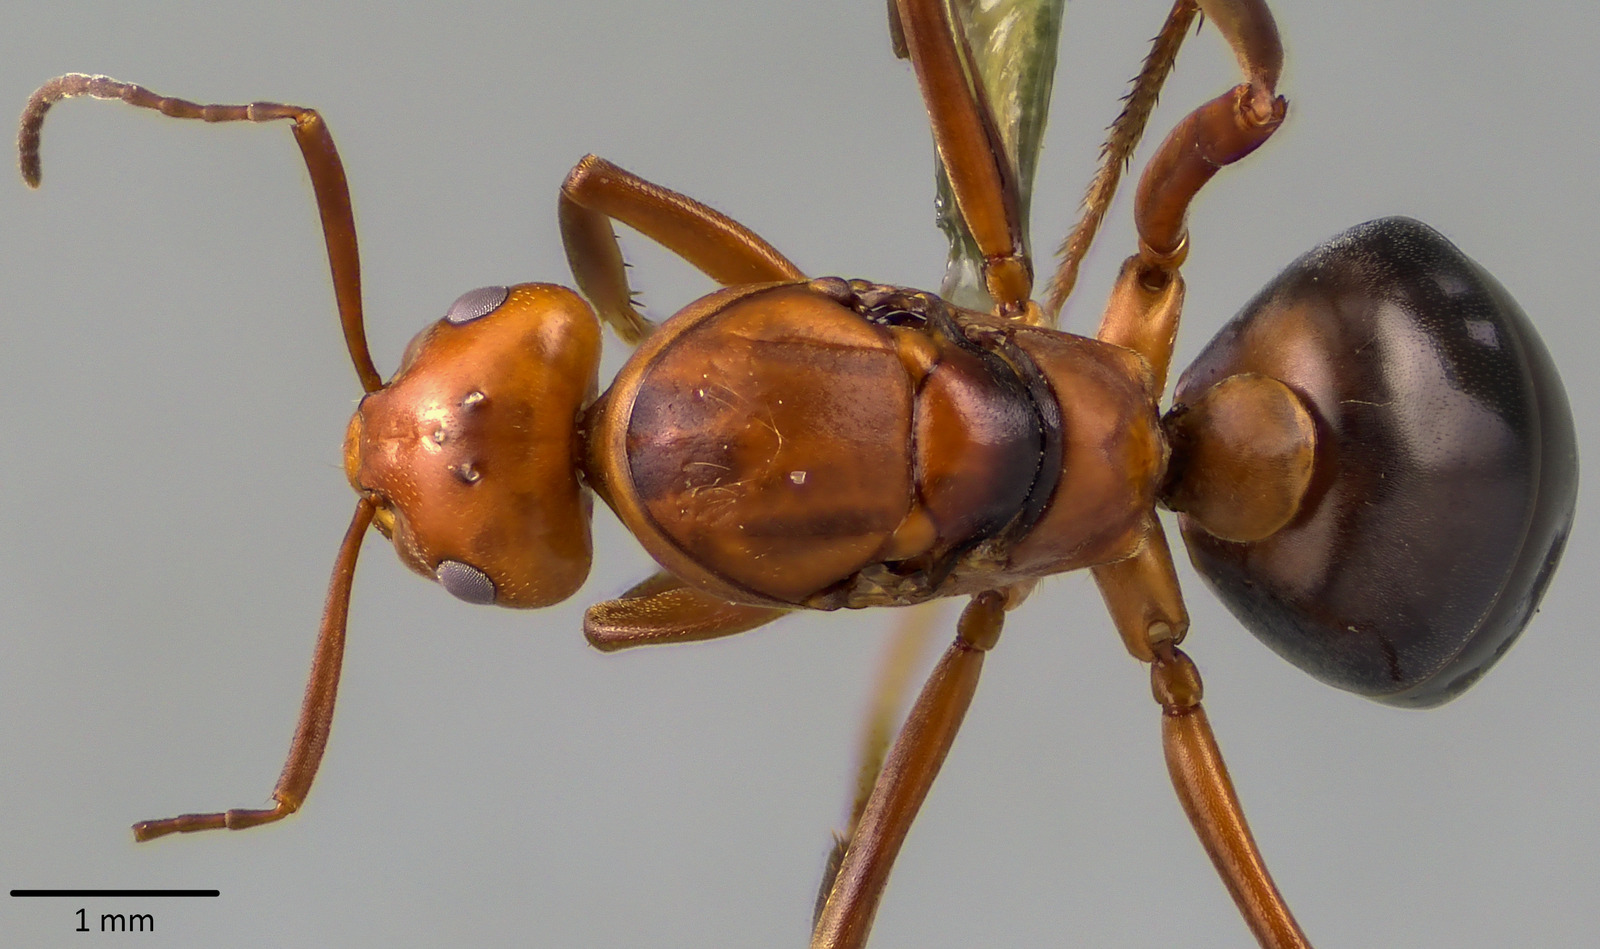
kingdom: Animalia
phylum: Arthropoda
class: Insecta
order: Hymenoptera
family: Formicidae
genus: Formica
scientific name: Formica
